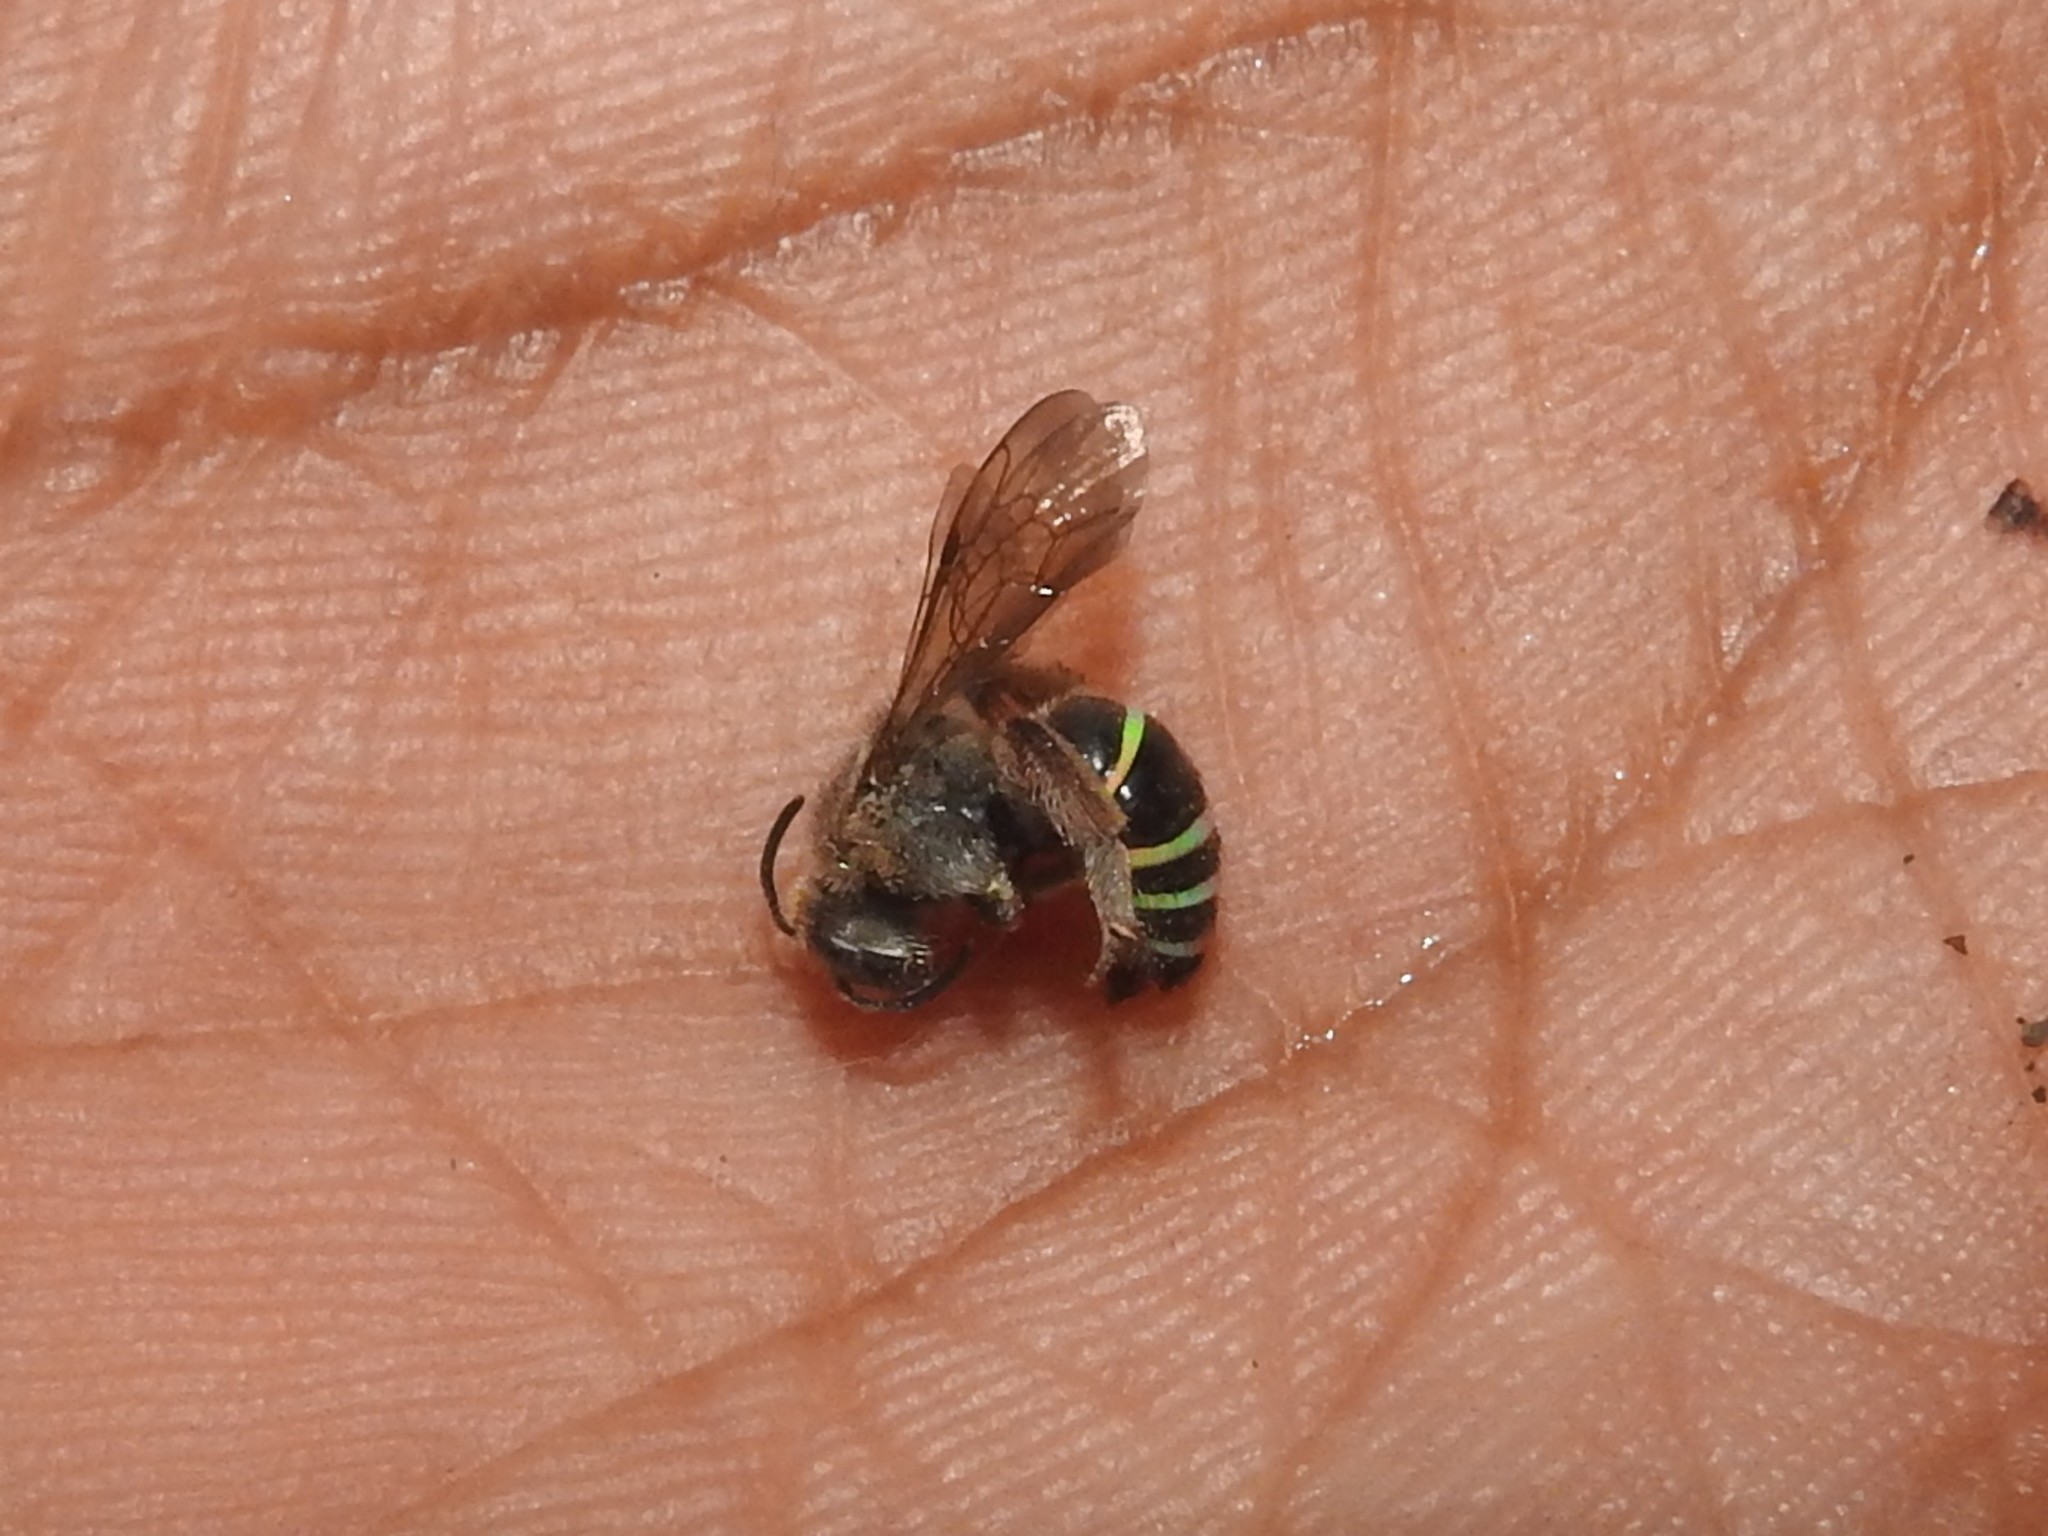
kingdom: Animalia
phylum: Arthropoda
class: Insecta
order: Hymenoptera
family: Halictidae
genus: Nomia
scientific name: Nomia westwoodi
